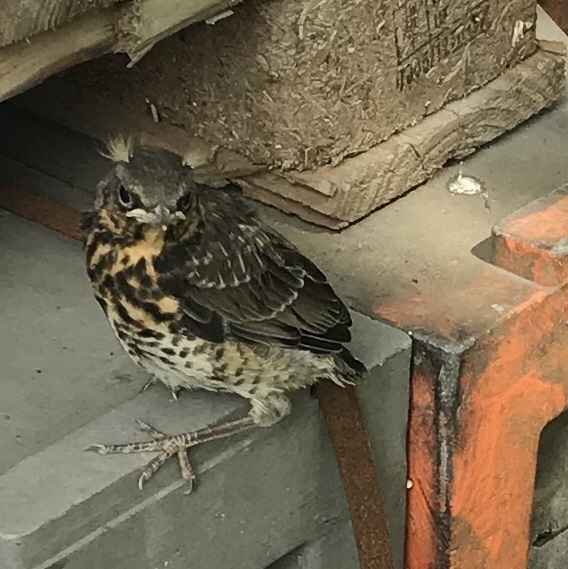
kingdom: Animalia
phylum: Chordata
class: Aves
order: Passeriformes
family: Turdidae
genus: Turdus
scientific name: Turdus pilaris
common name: Fieldfare
